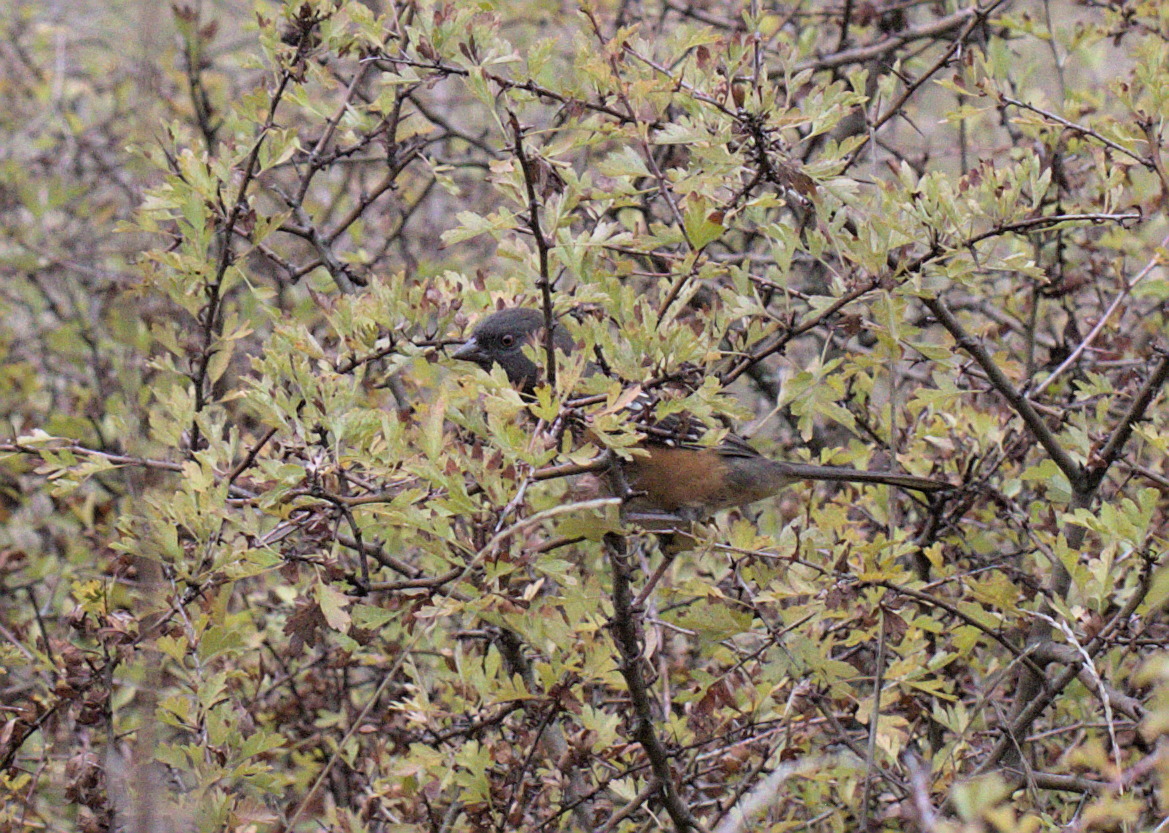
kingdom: Animalia
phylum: Chordata
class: Aves
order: Passeriformes
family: Passerellidae
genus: Pipilo
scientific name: Pipilo maculatus
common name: Spotted towhee
